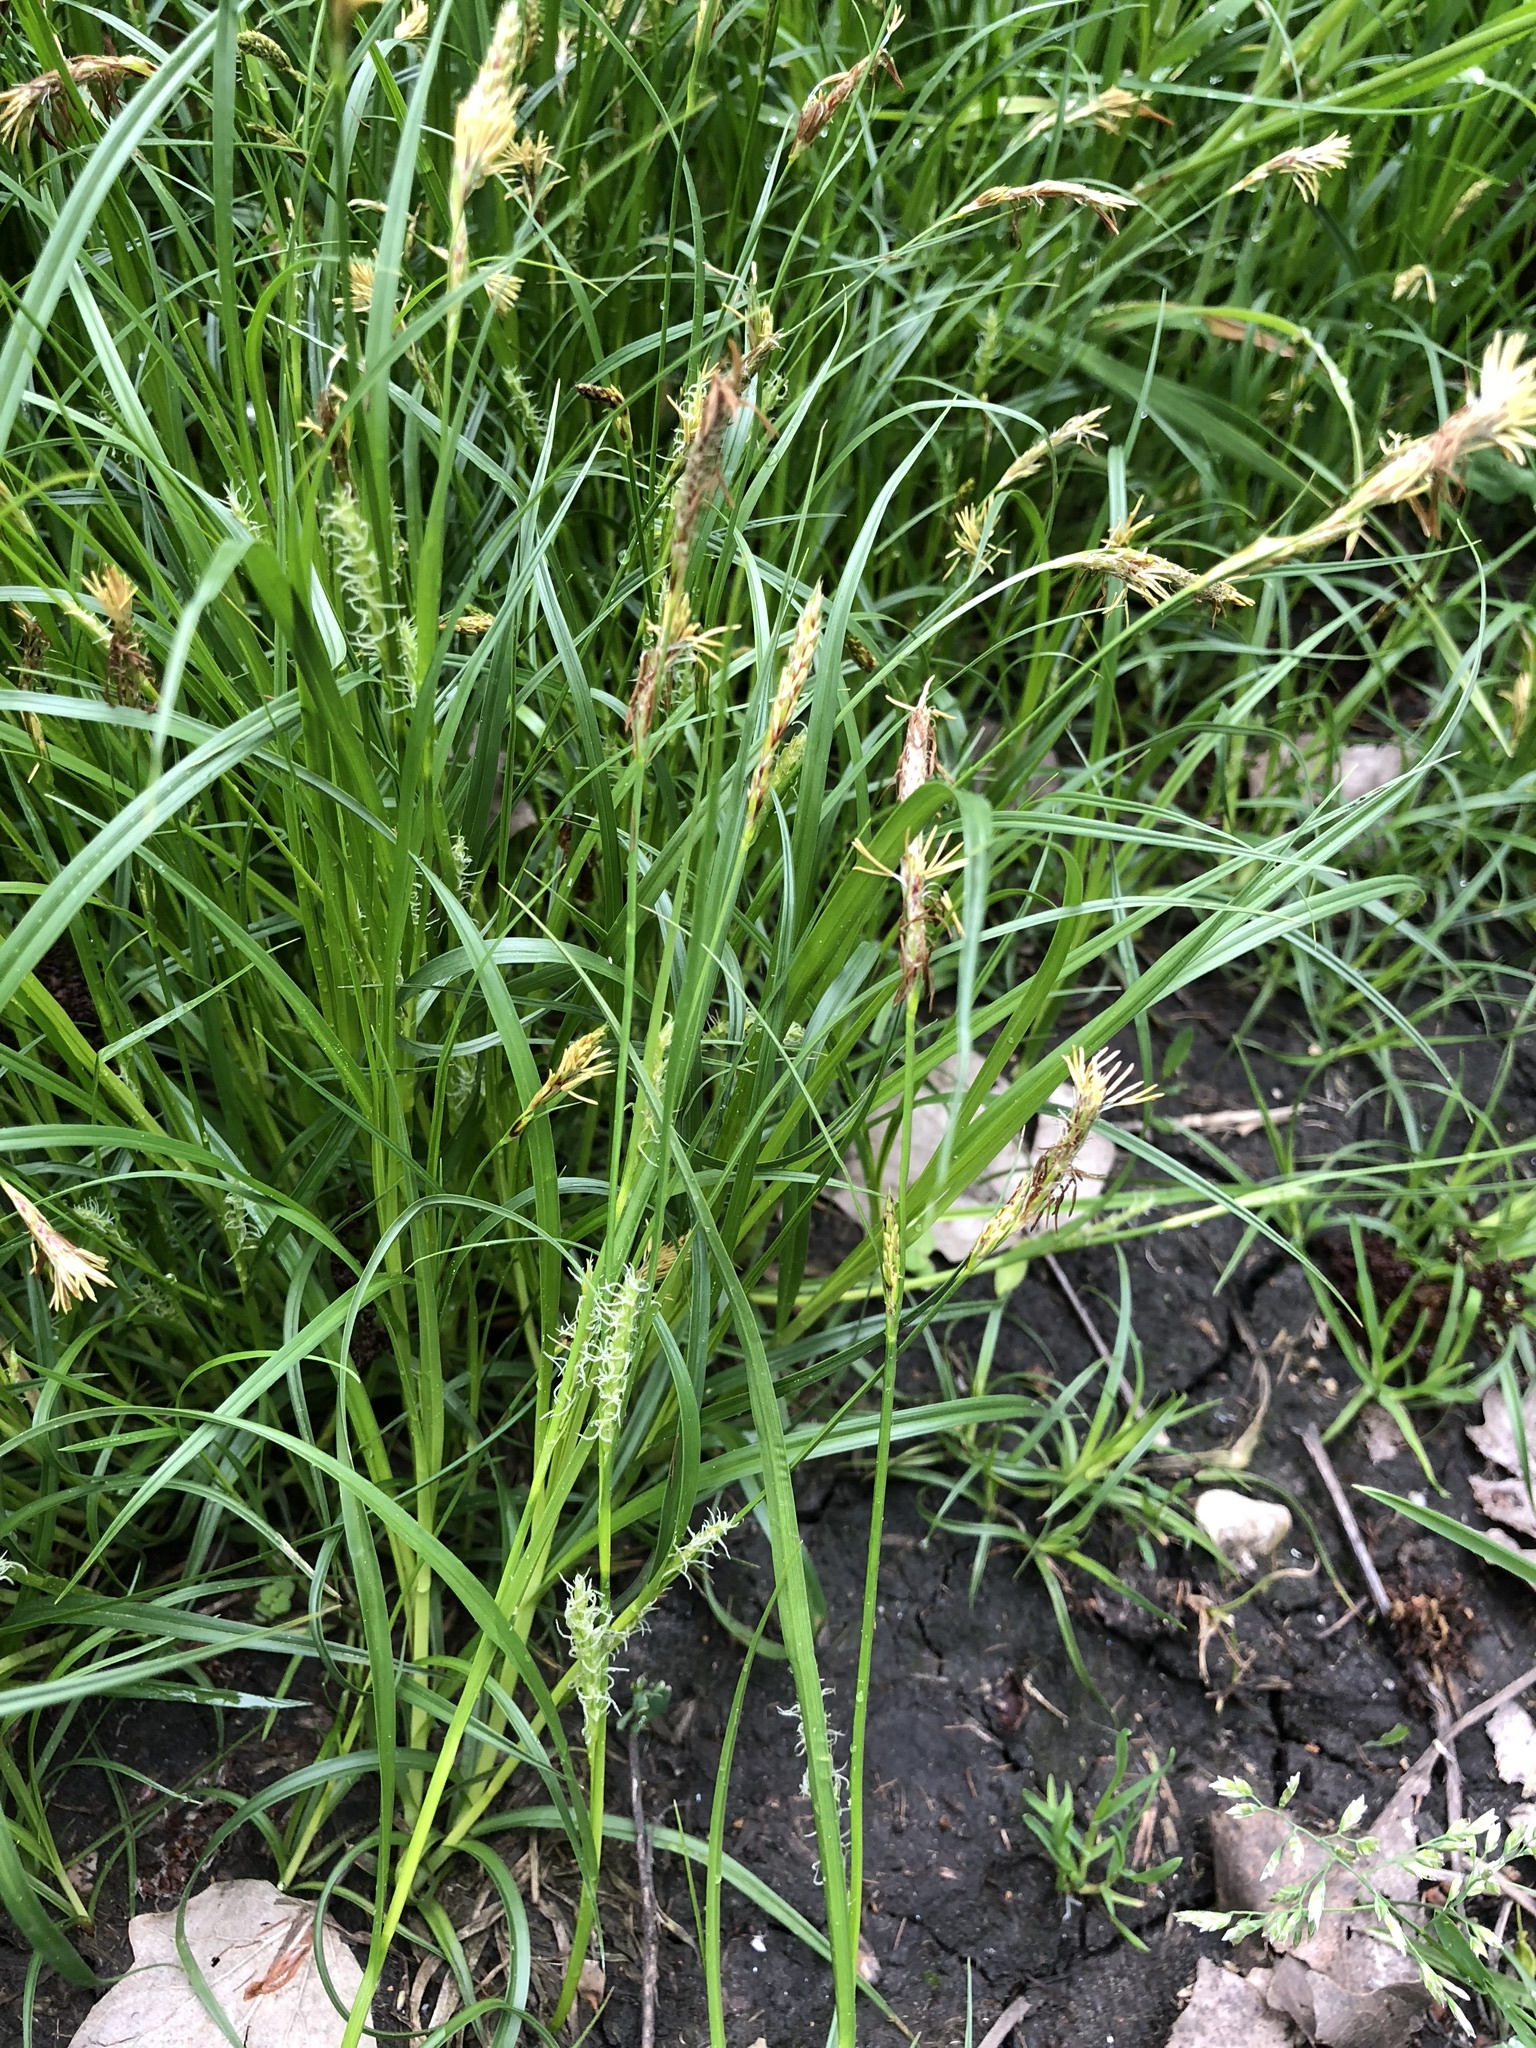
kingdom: Plantae
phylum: Tracheophyta
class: Liliopsida
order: Poales
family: Cyperaceae
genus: Carex
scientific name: Carex hirta
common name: Hairy sedge
